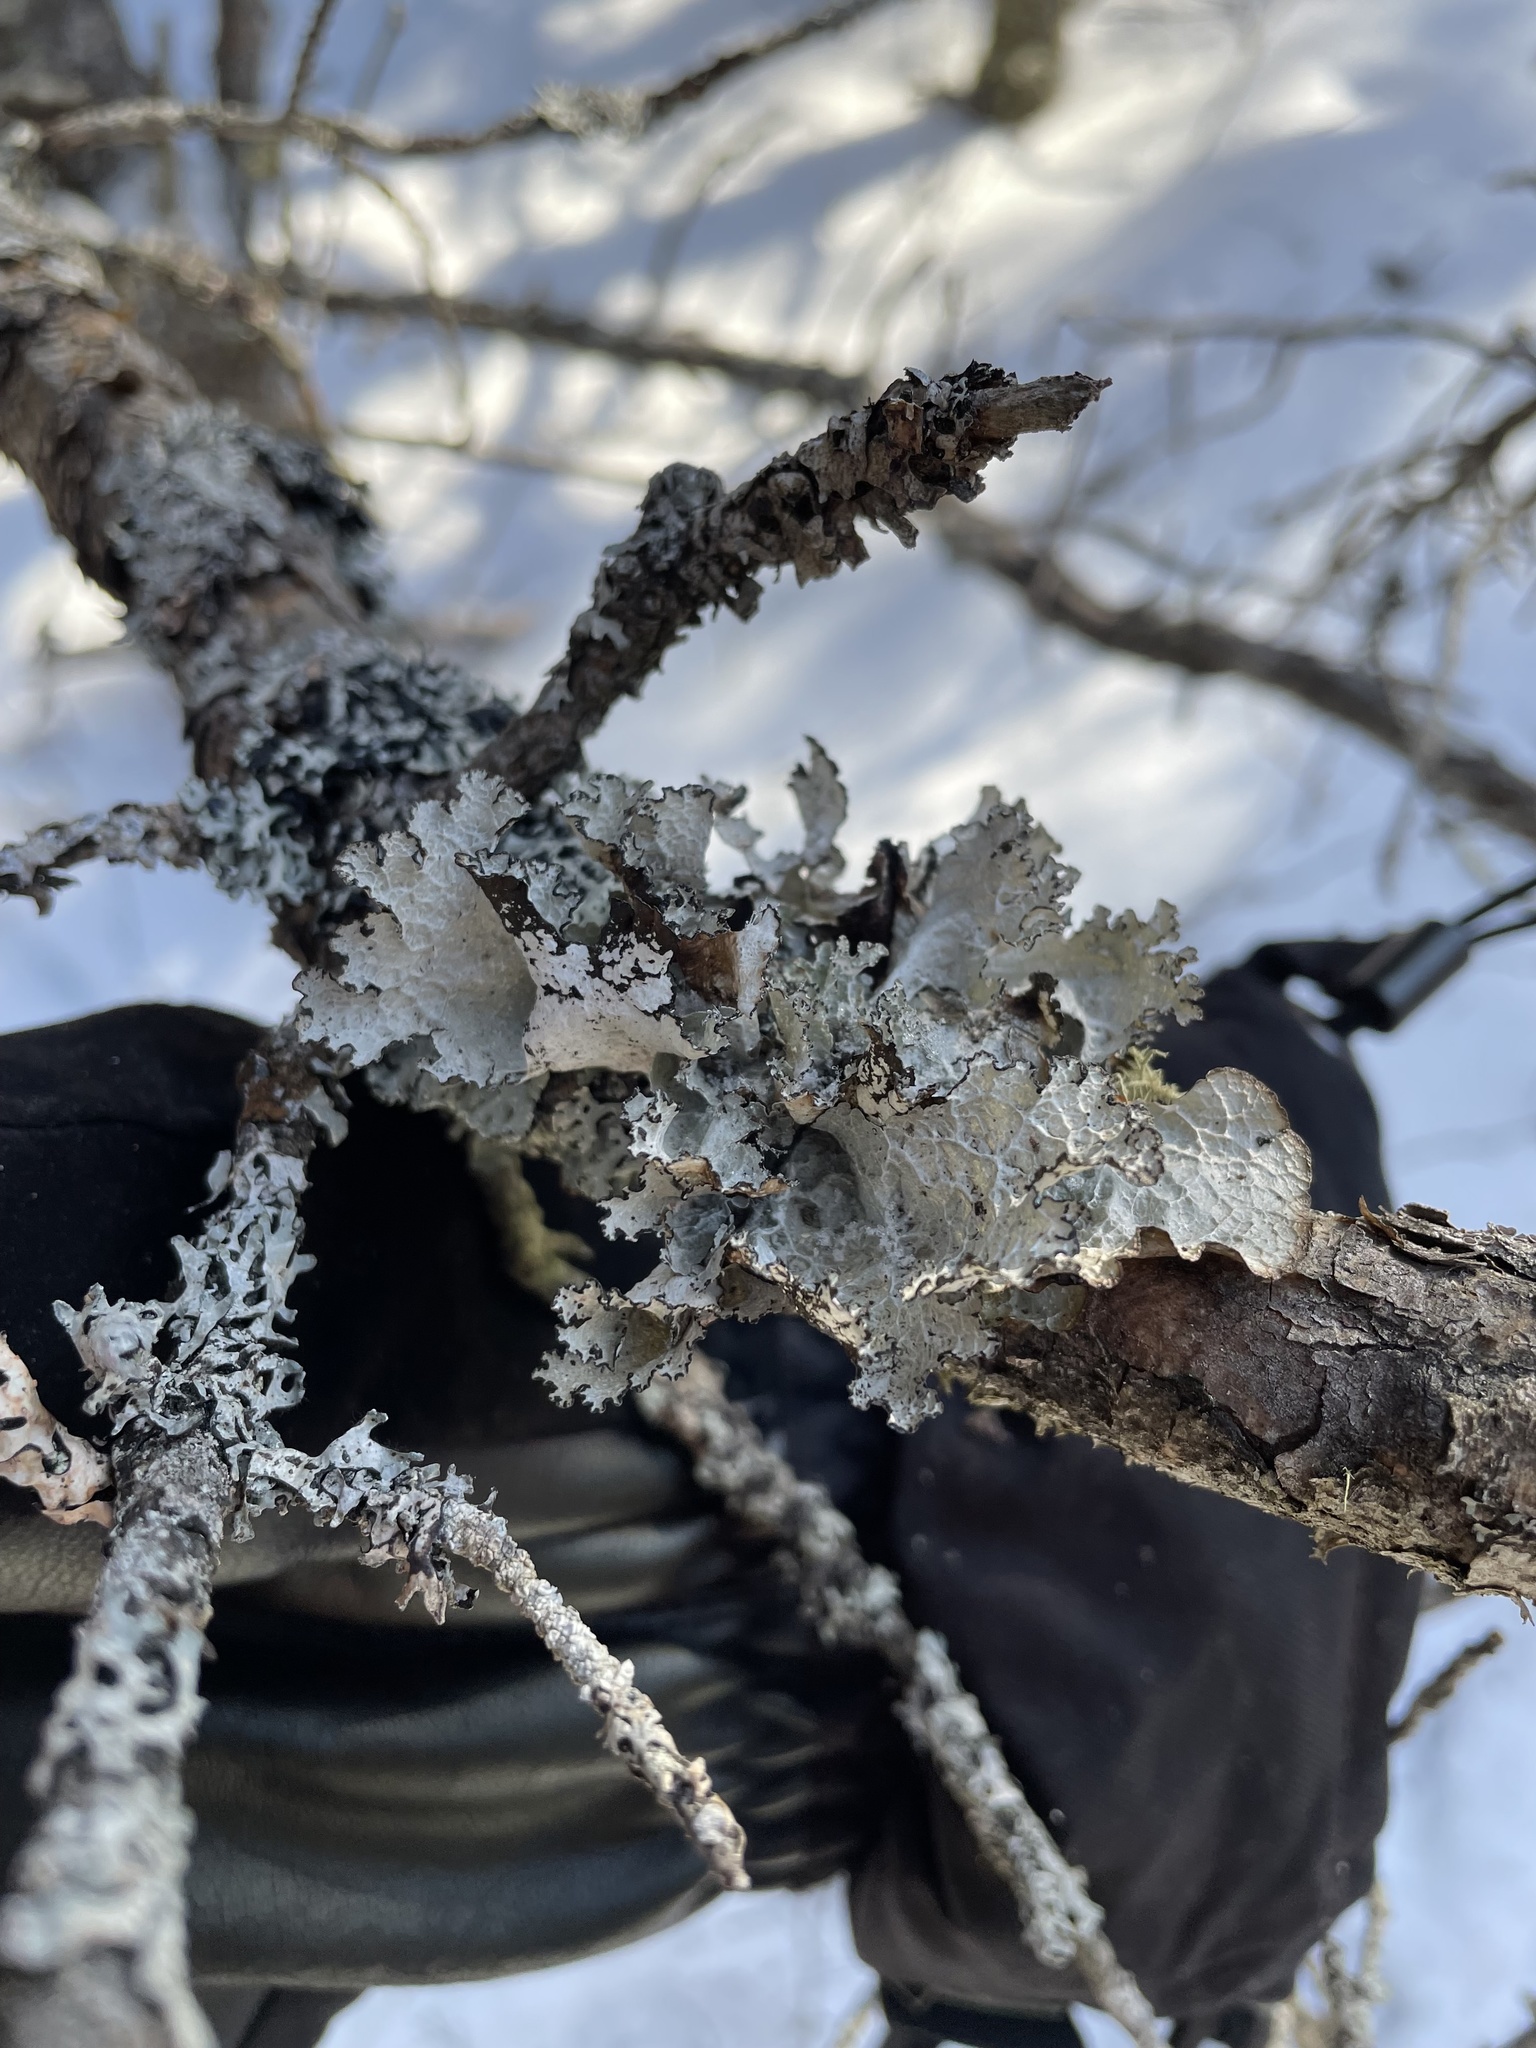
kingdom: Fungi
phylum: Ascomycota
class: Lecanoromycetes
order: Lecanorales
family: Parmeliaceae
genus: Platismatia
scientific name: Platismatia tuckermanii
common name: Crumpled rag lichen
